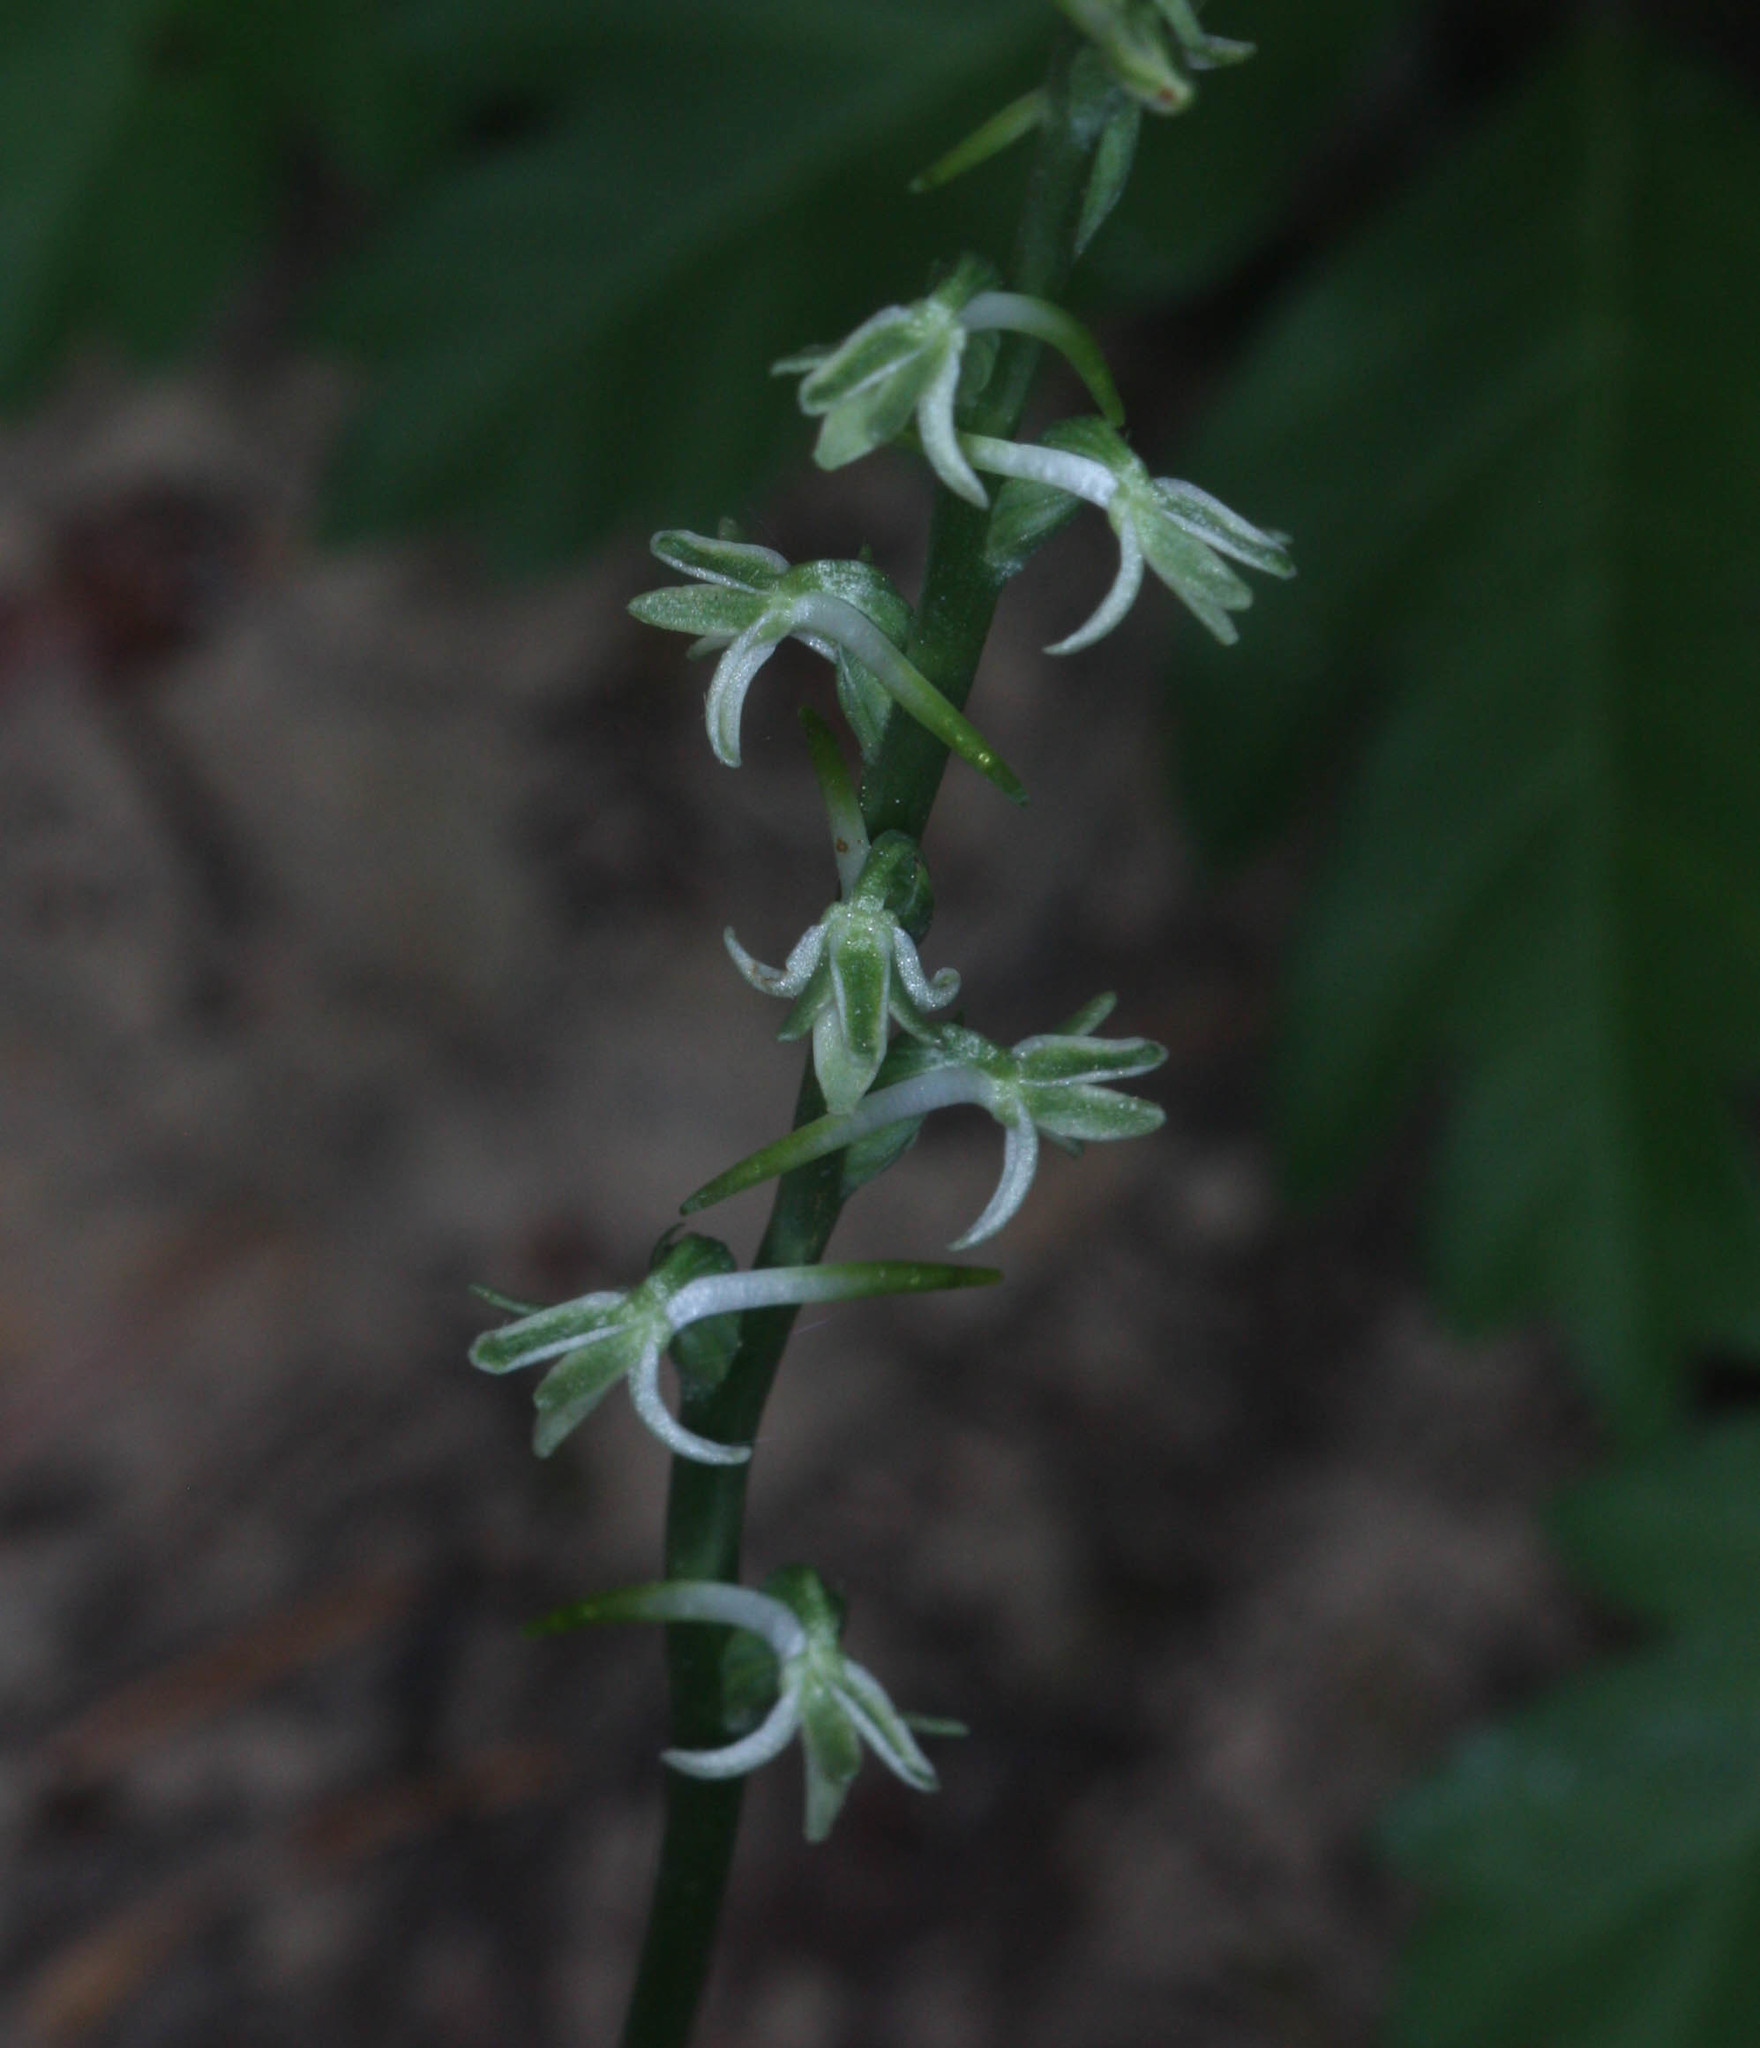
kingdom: Plantae
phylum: Tracheophyta
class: Liliopsida
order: Asparagales
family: Orchidaceae
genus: Platanthera
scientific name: Platanthera transversa
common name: Royal rein orchid
